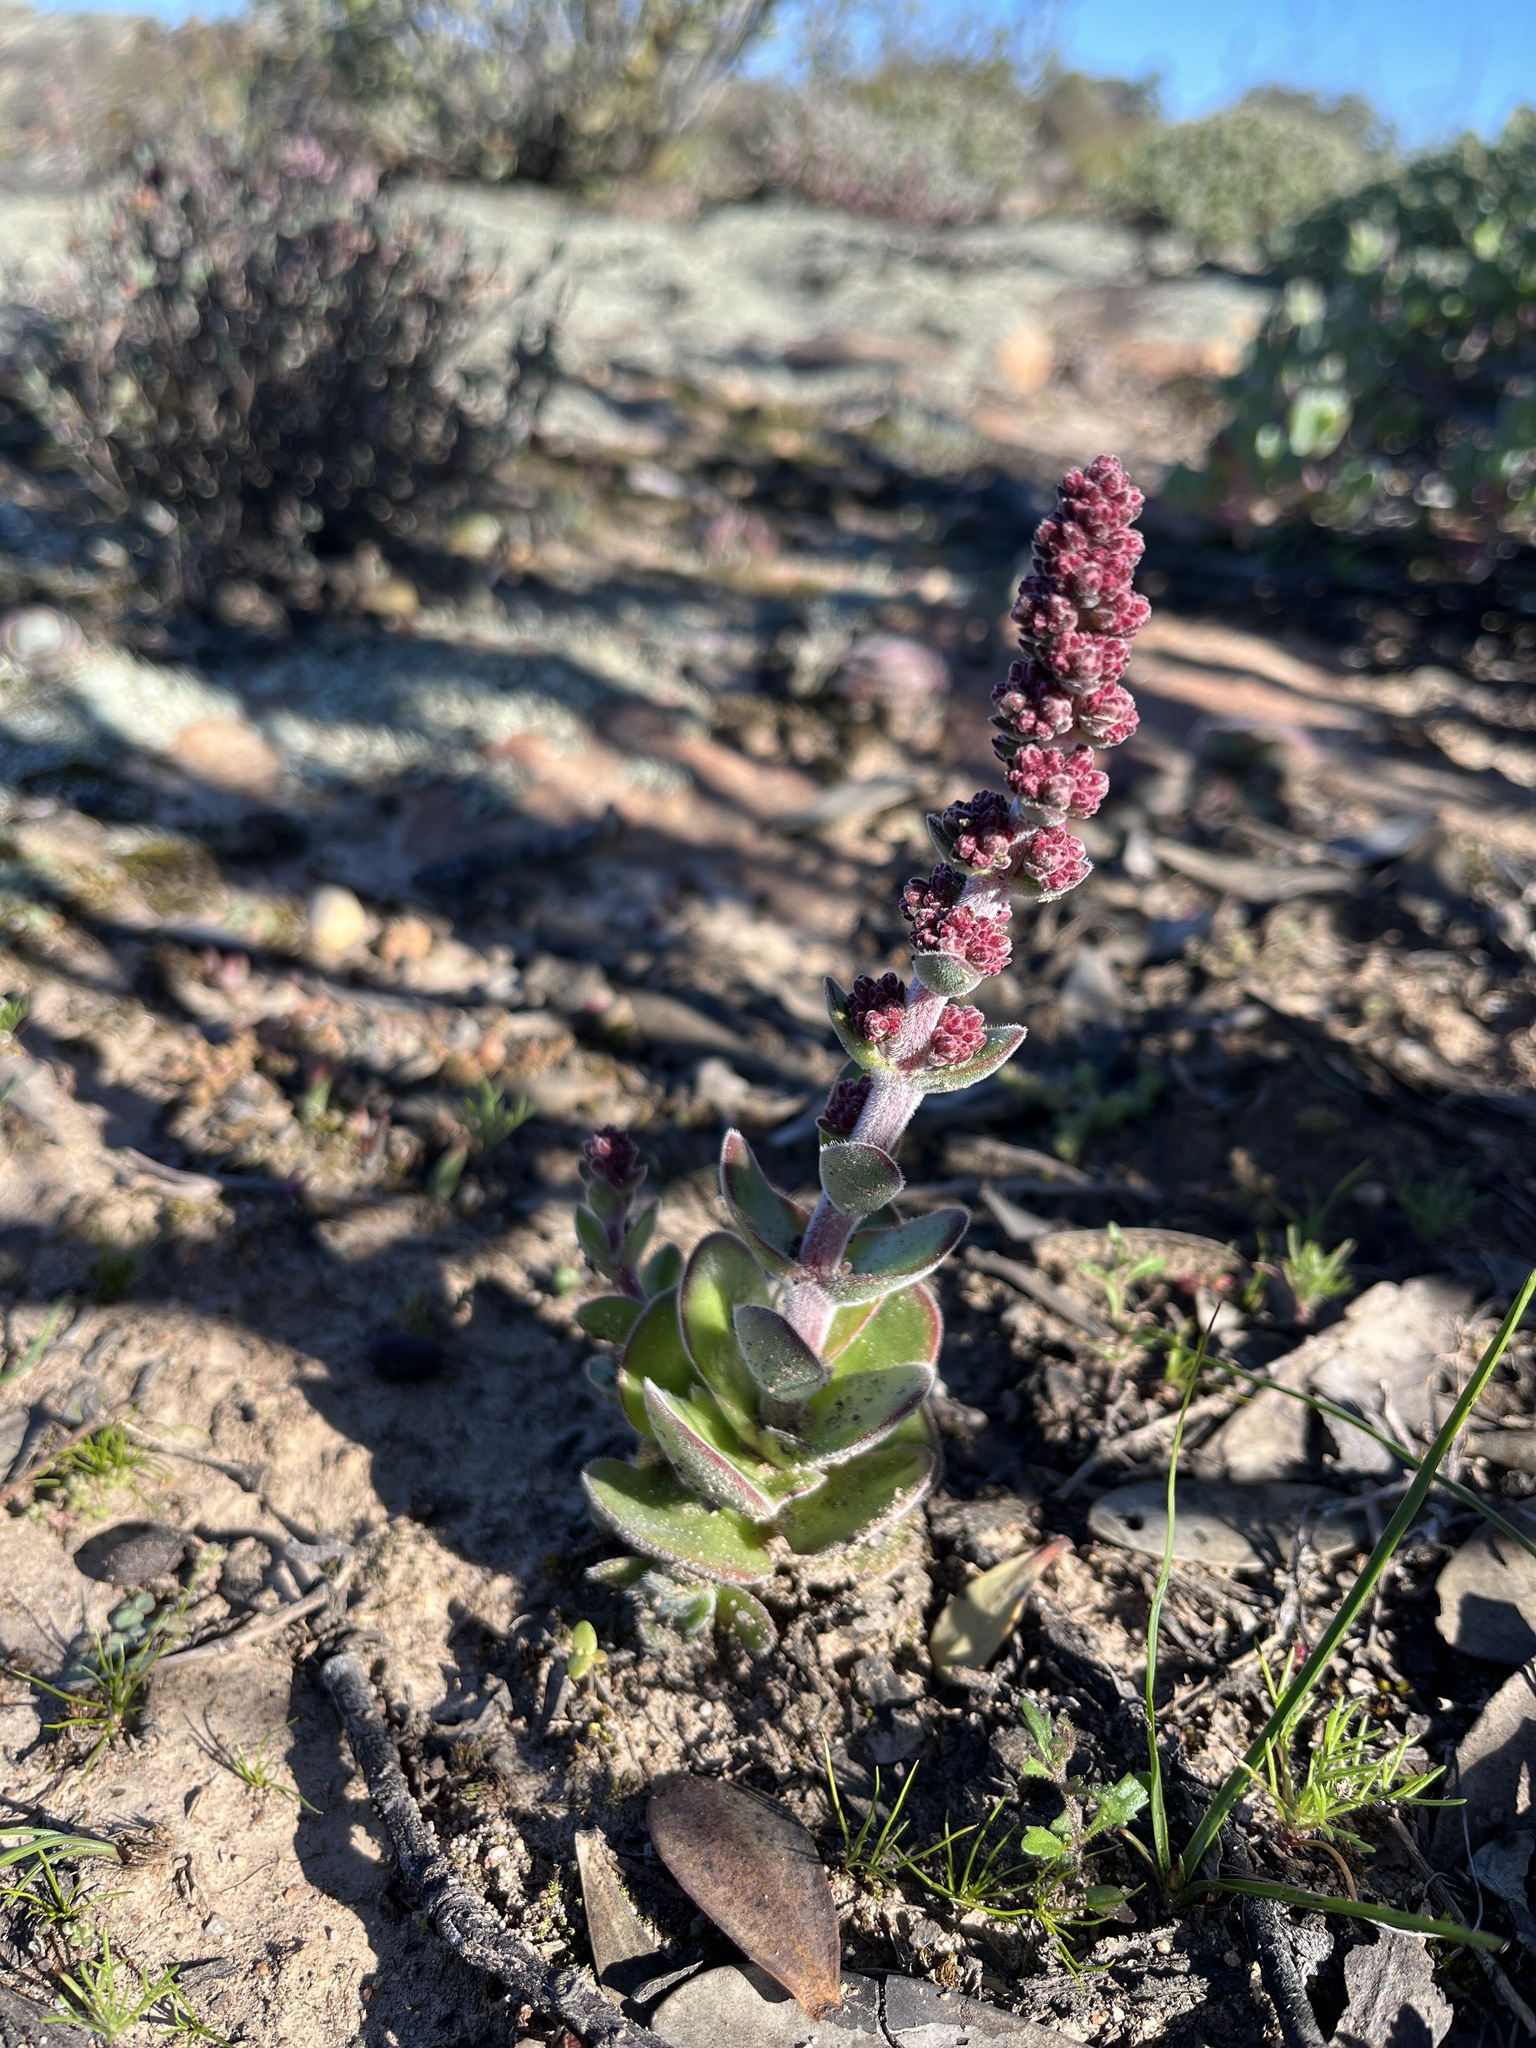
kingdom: Plantae
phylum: Tracheophyta
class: Magnoliopsida
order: Saxifragales
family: Crassulaceae
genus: Crassula
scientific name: Crassula tomentosa
